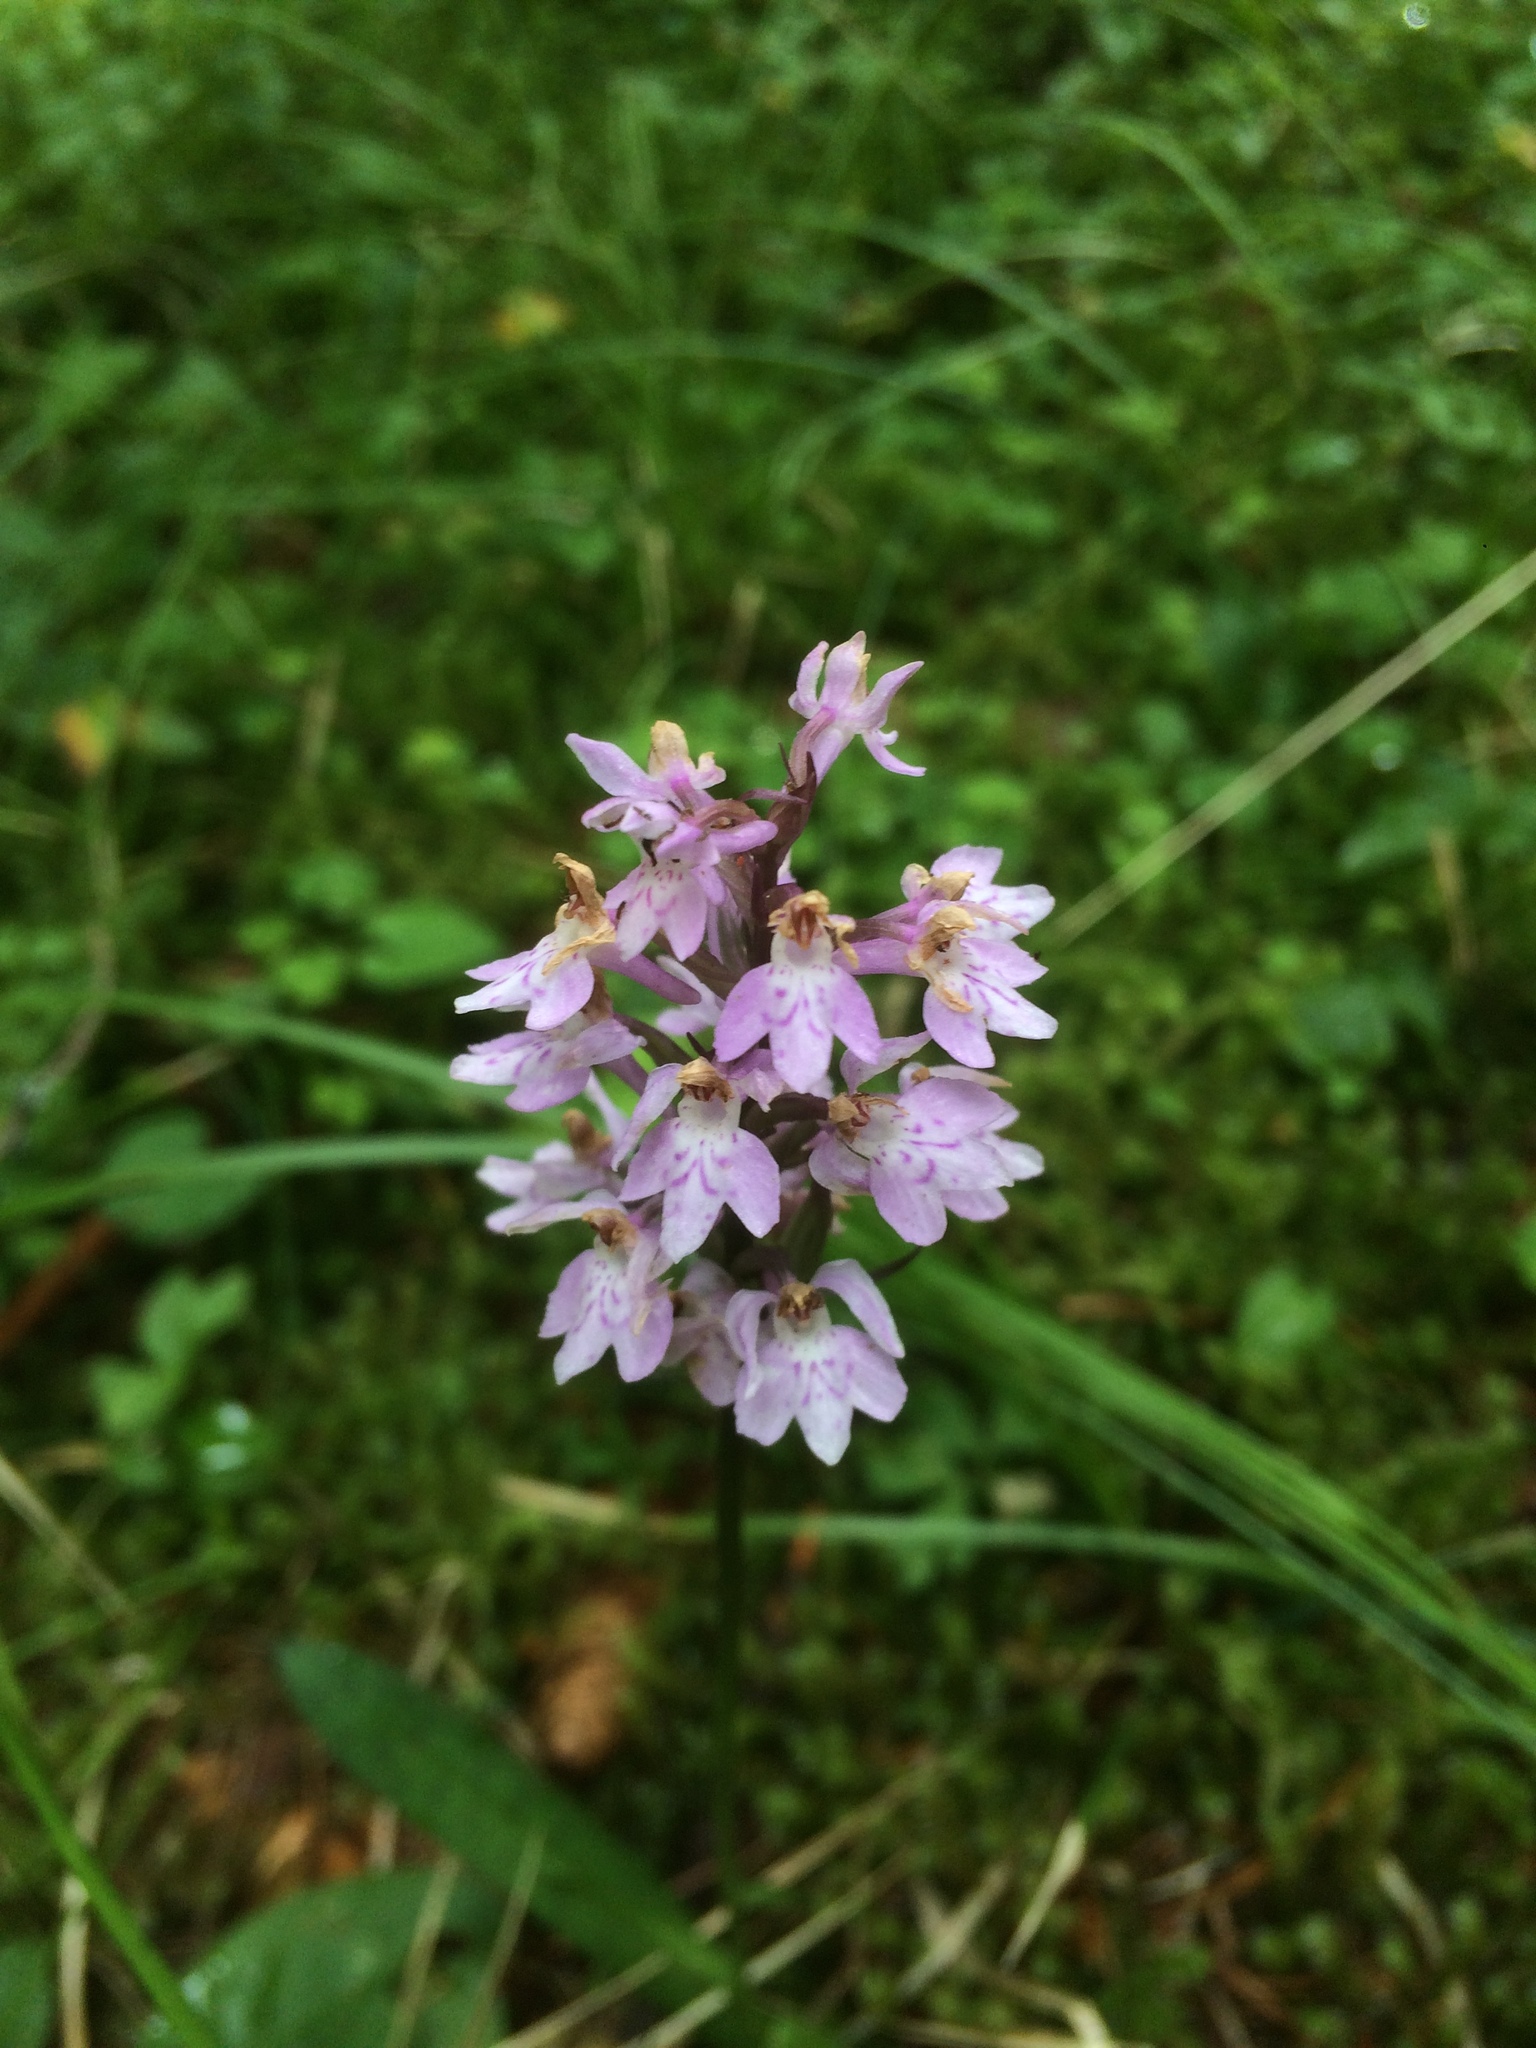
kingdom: Plantae
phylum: Tracheophyta
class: Liliopsida
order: Asparagales
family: Orchidaceae
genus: Dactylorhiza
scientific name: Dactylorhiza maculata
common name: Heath spotted-orchid
